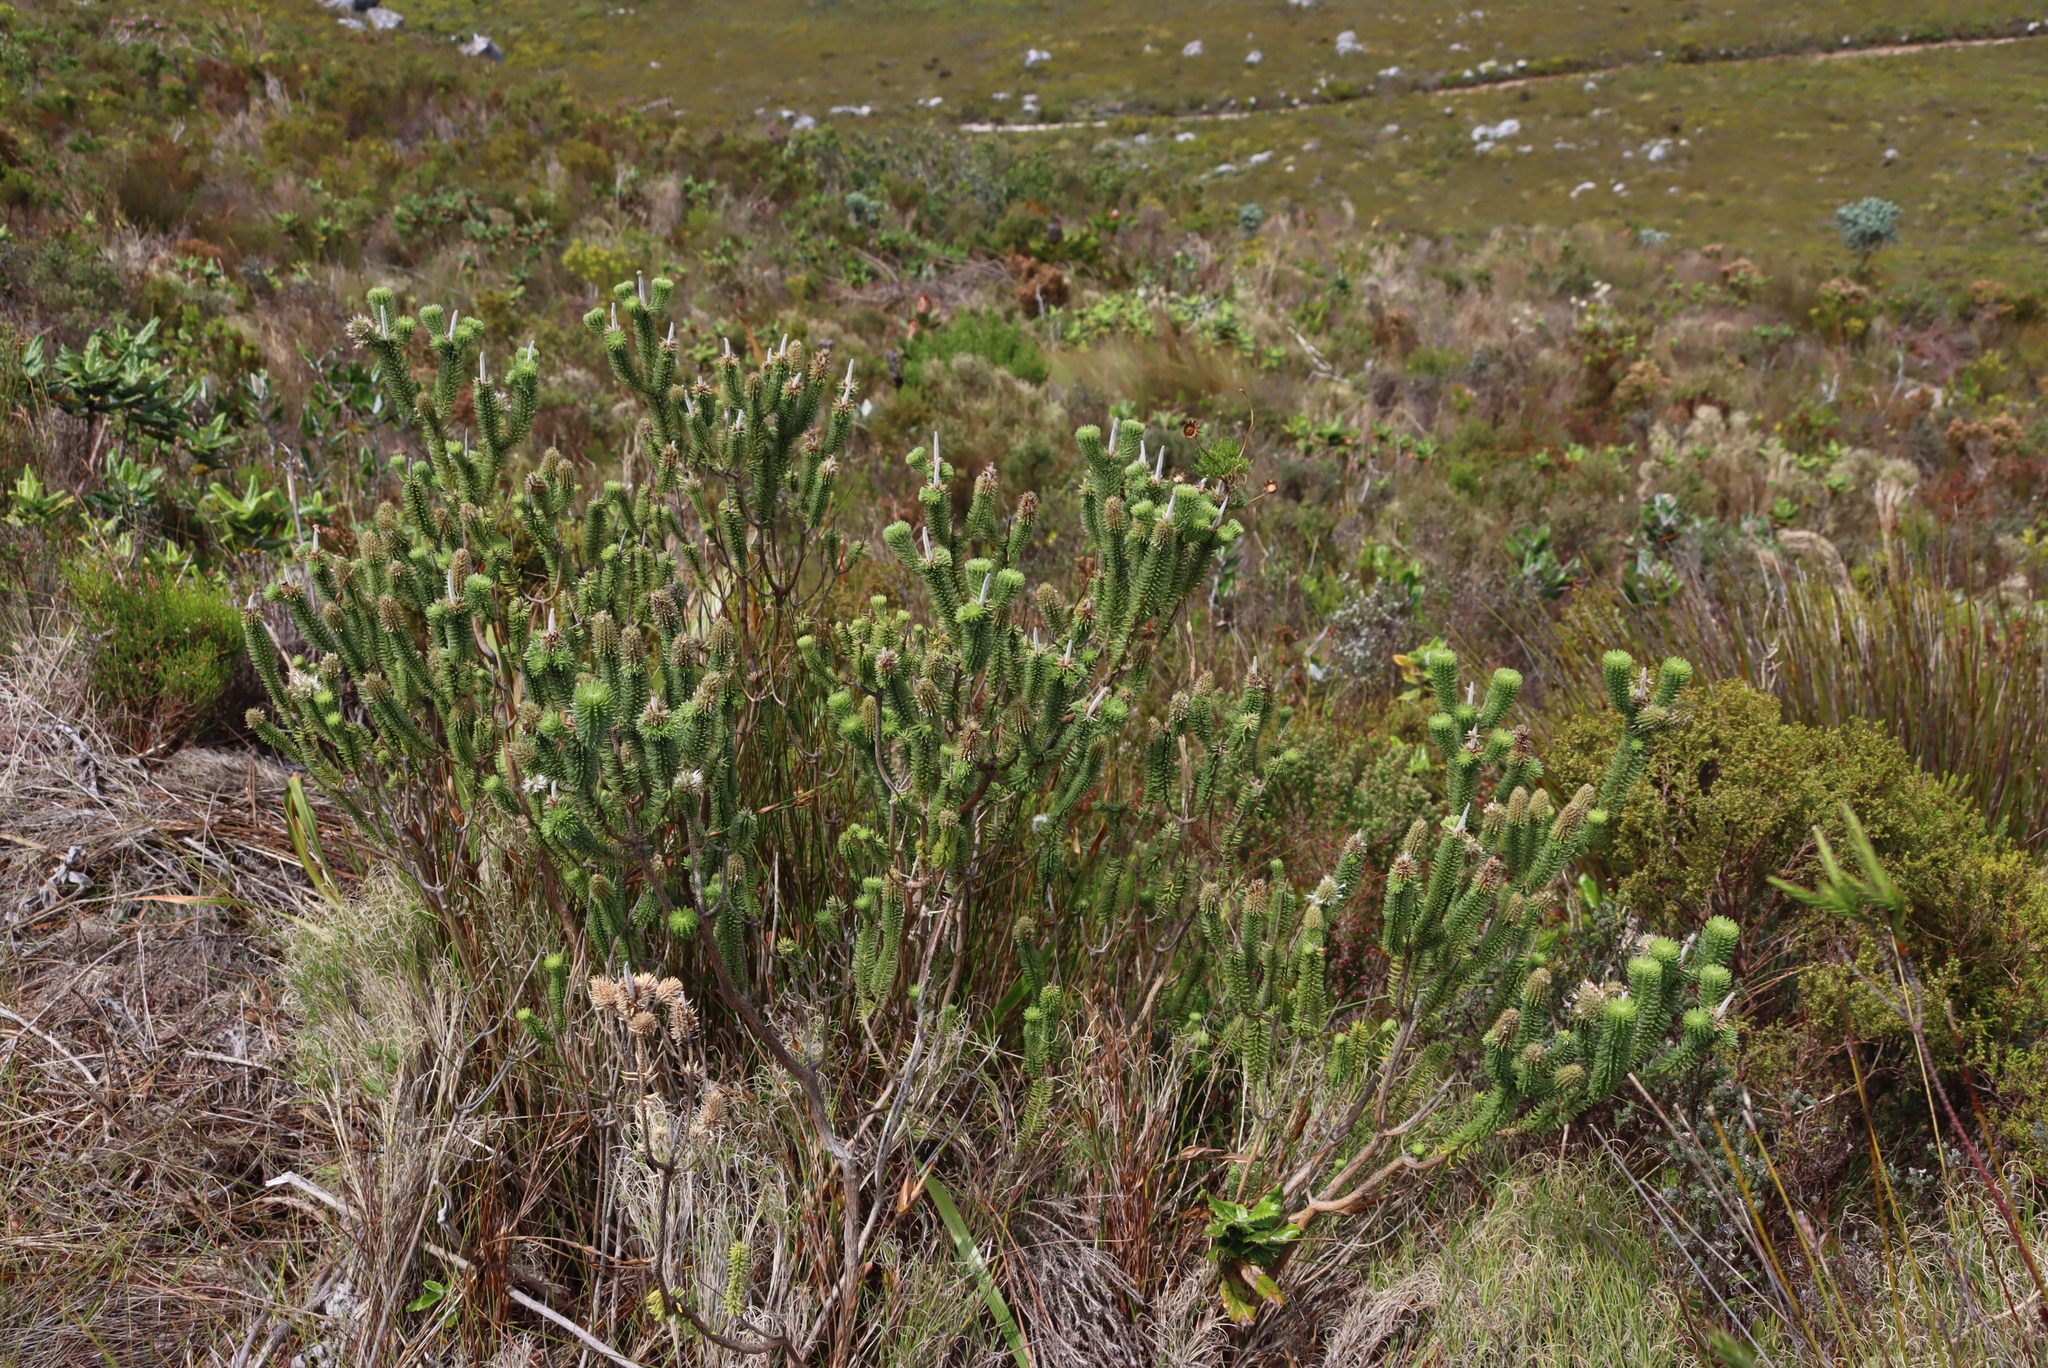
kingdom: Plantae
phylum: Tracheophyta
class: Magnoliopsida
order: Lamiales
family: Stilbaceae
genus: Stilbe
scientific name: Stilbe vestita
